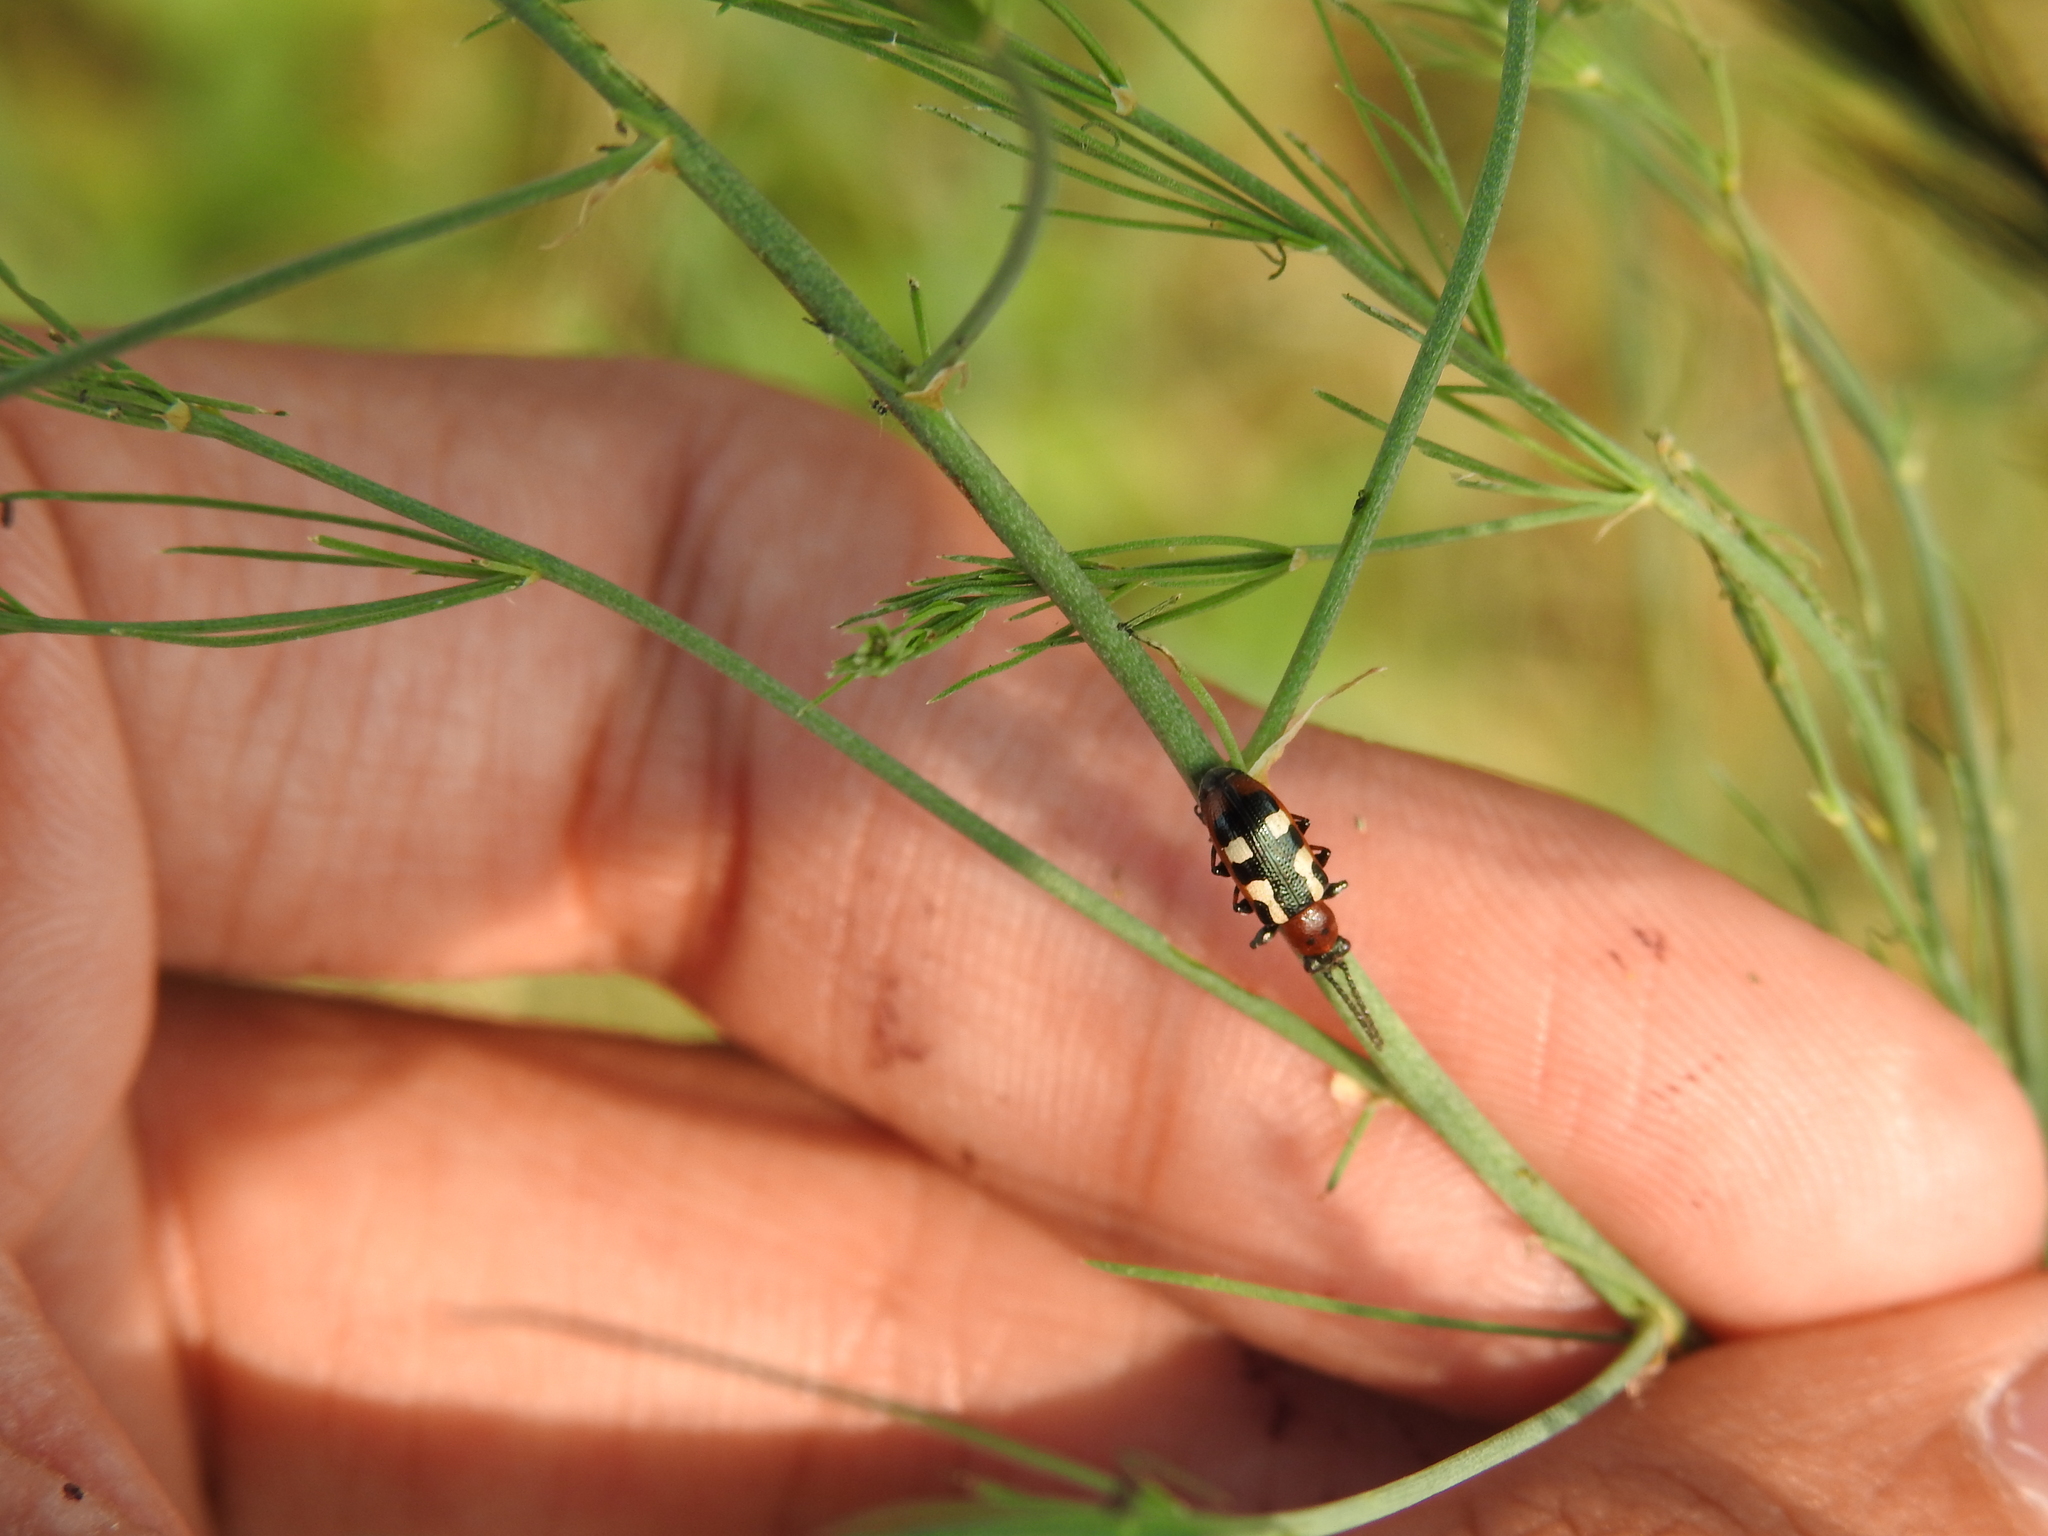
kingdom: Animalia
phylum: Arthropoda
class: Insecta
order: Coleoptera
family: Chrysomelidae
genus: Crioceris
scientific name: Crioceris asparagi
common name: Asparagus beetle
